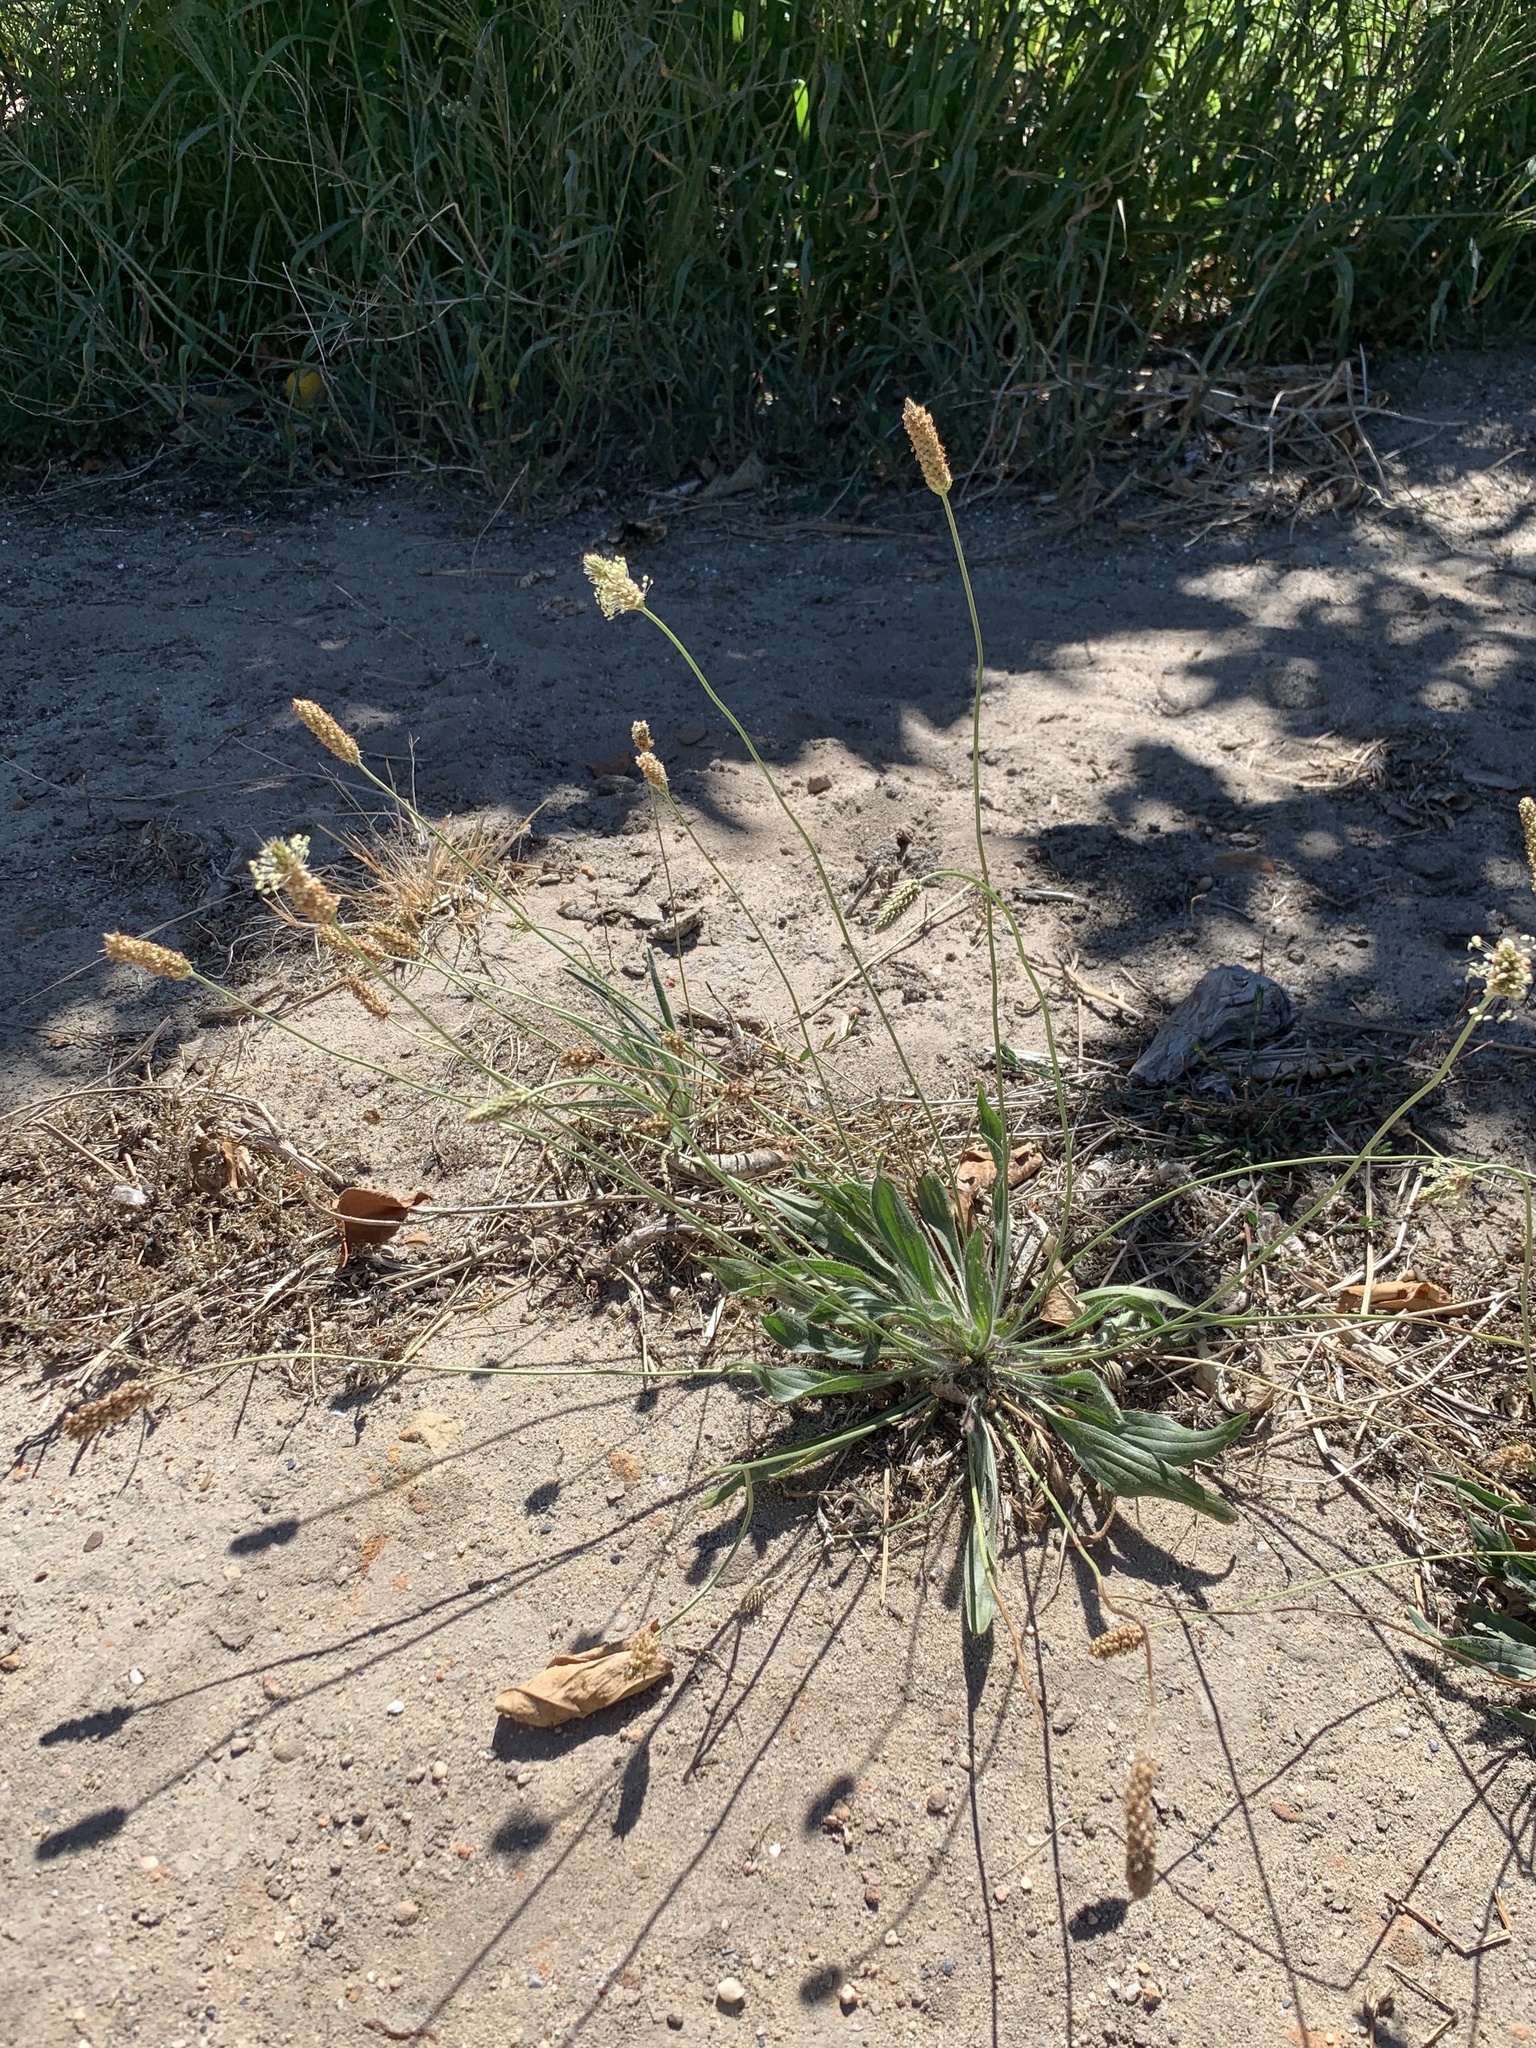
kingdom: Plantae
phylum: Tracheophyta
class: Magnoliopsida
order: Lamiales
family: Plantaginaceae
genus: Plantago
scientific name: Plantago lanceolata
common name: Ribwort plantain
